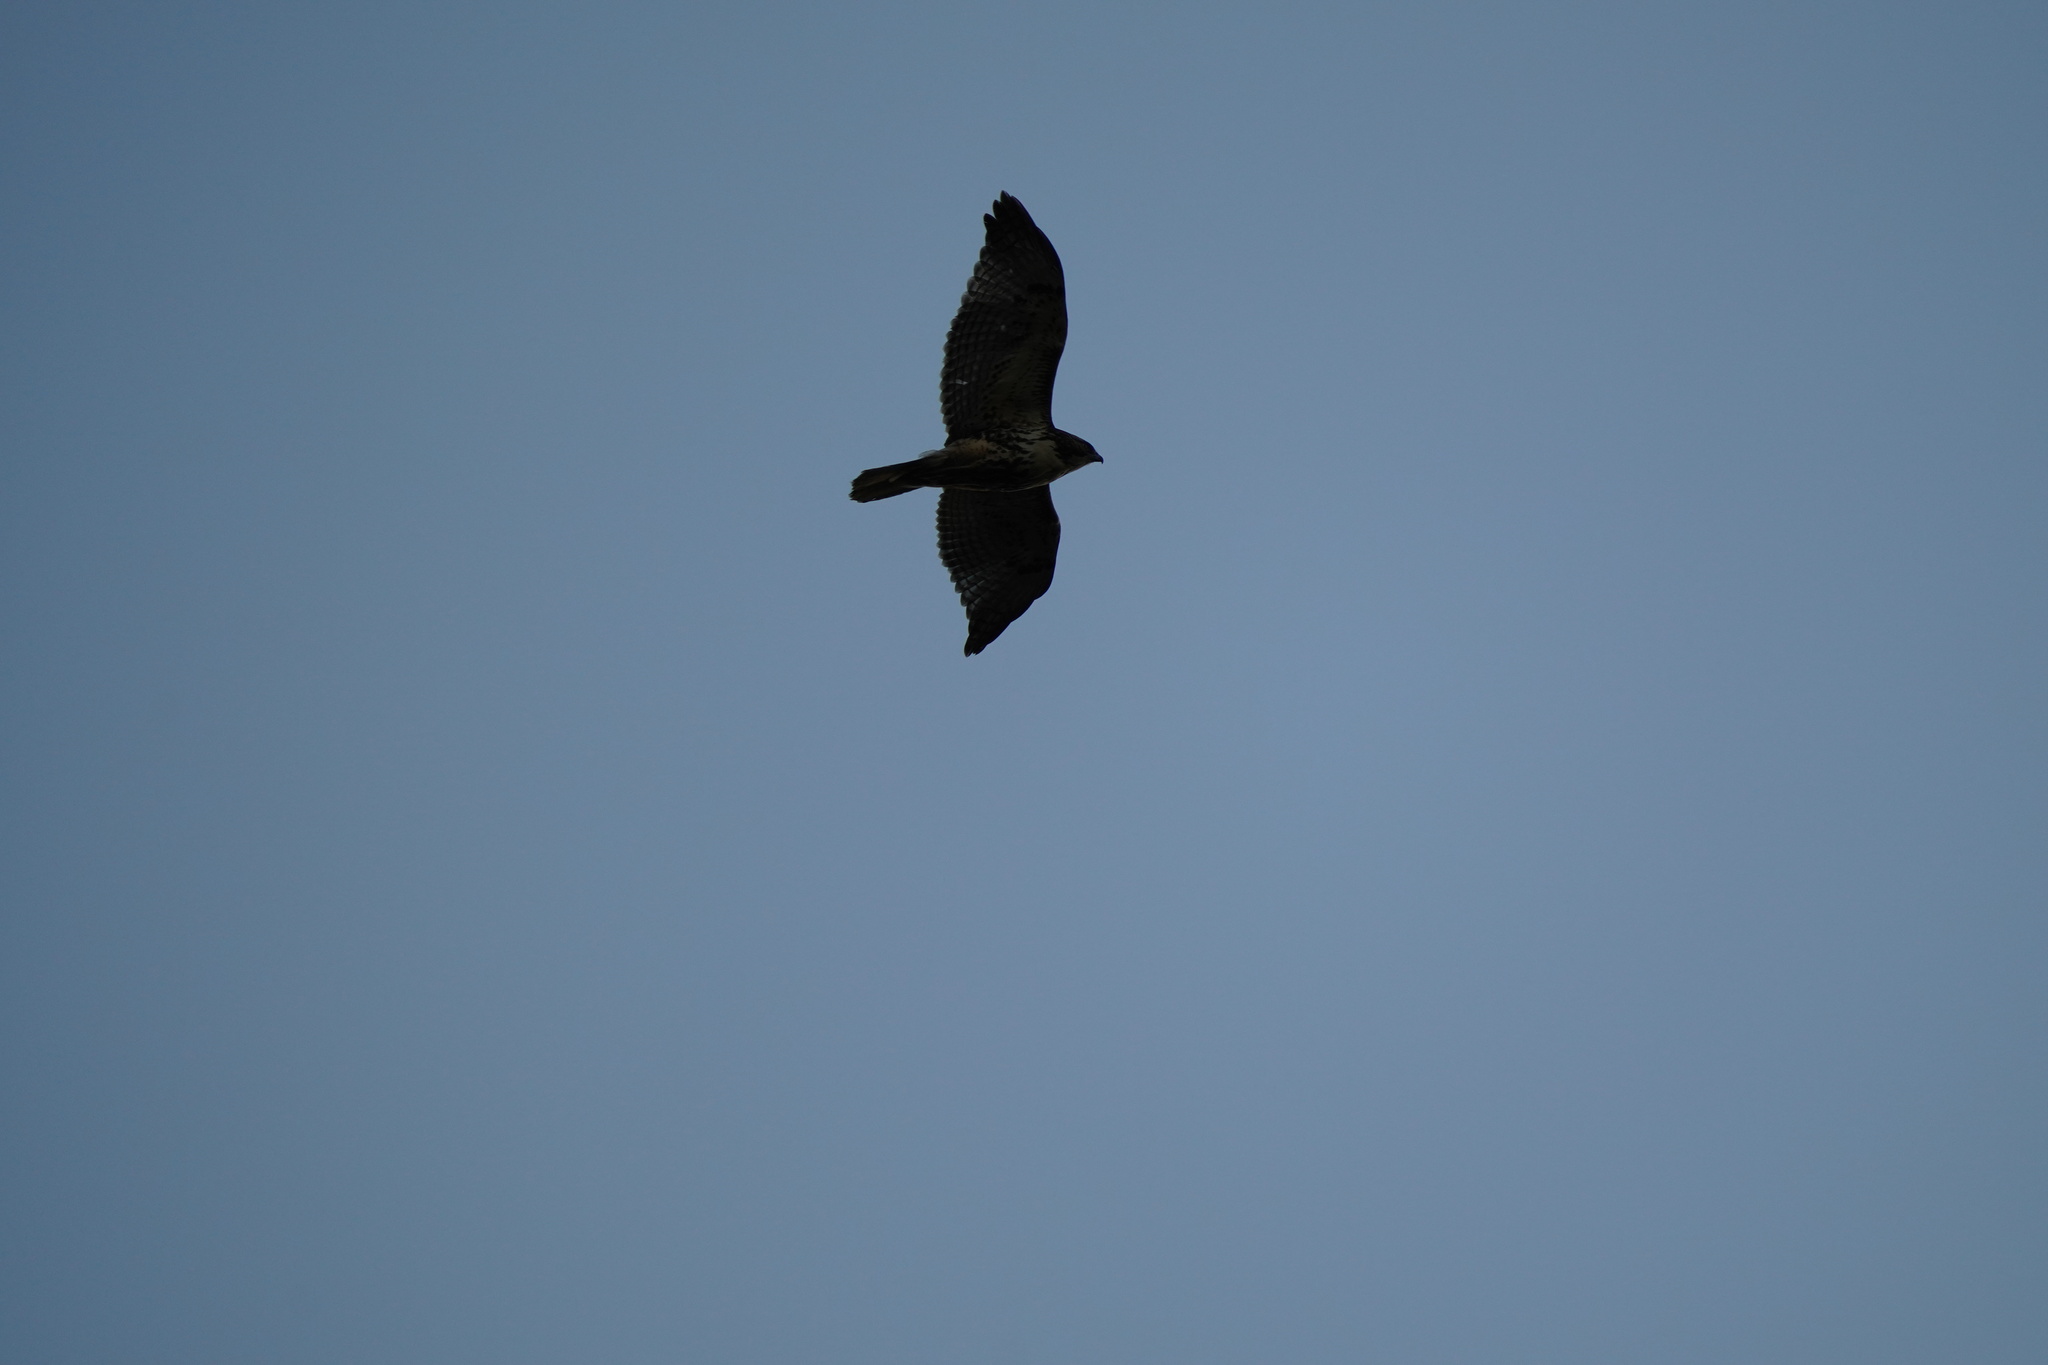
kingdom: Animalia
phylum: Chordata
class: Aves
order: Accipitriformes
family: Accipitridae
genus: Buteo
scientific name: Buteo jamaicensis
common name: Red-tailed hawk
